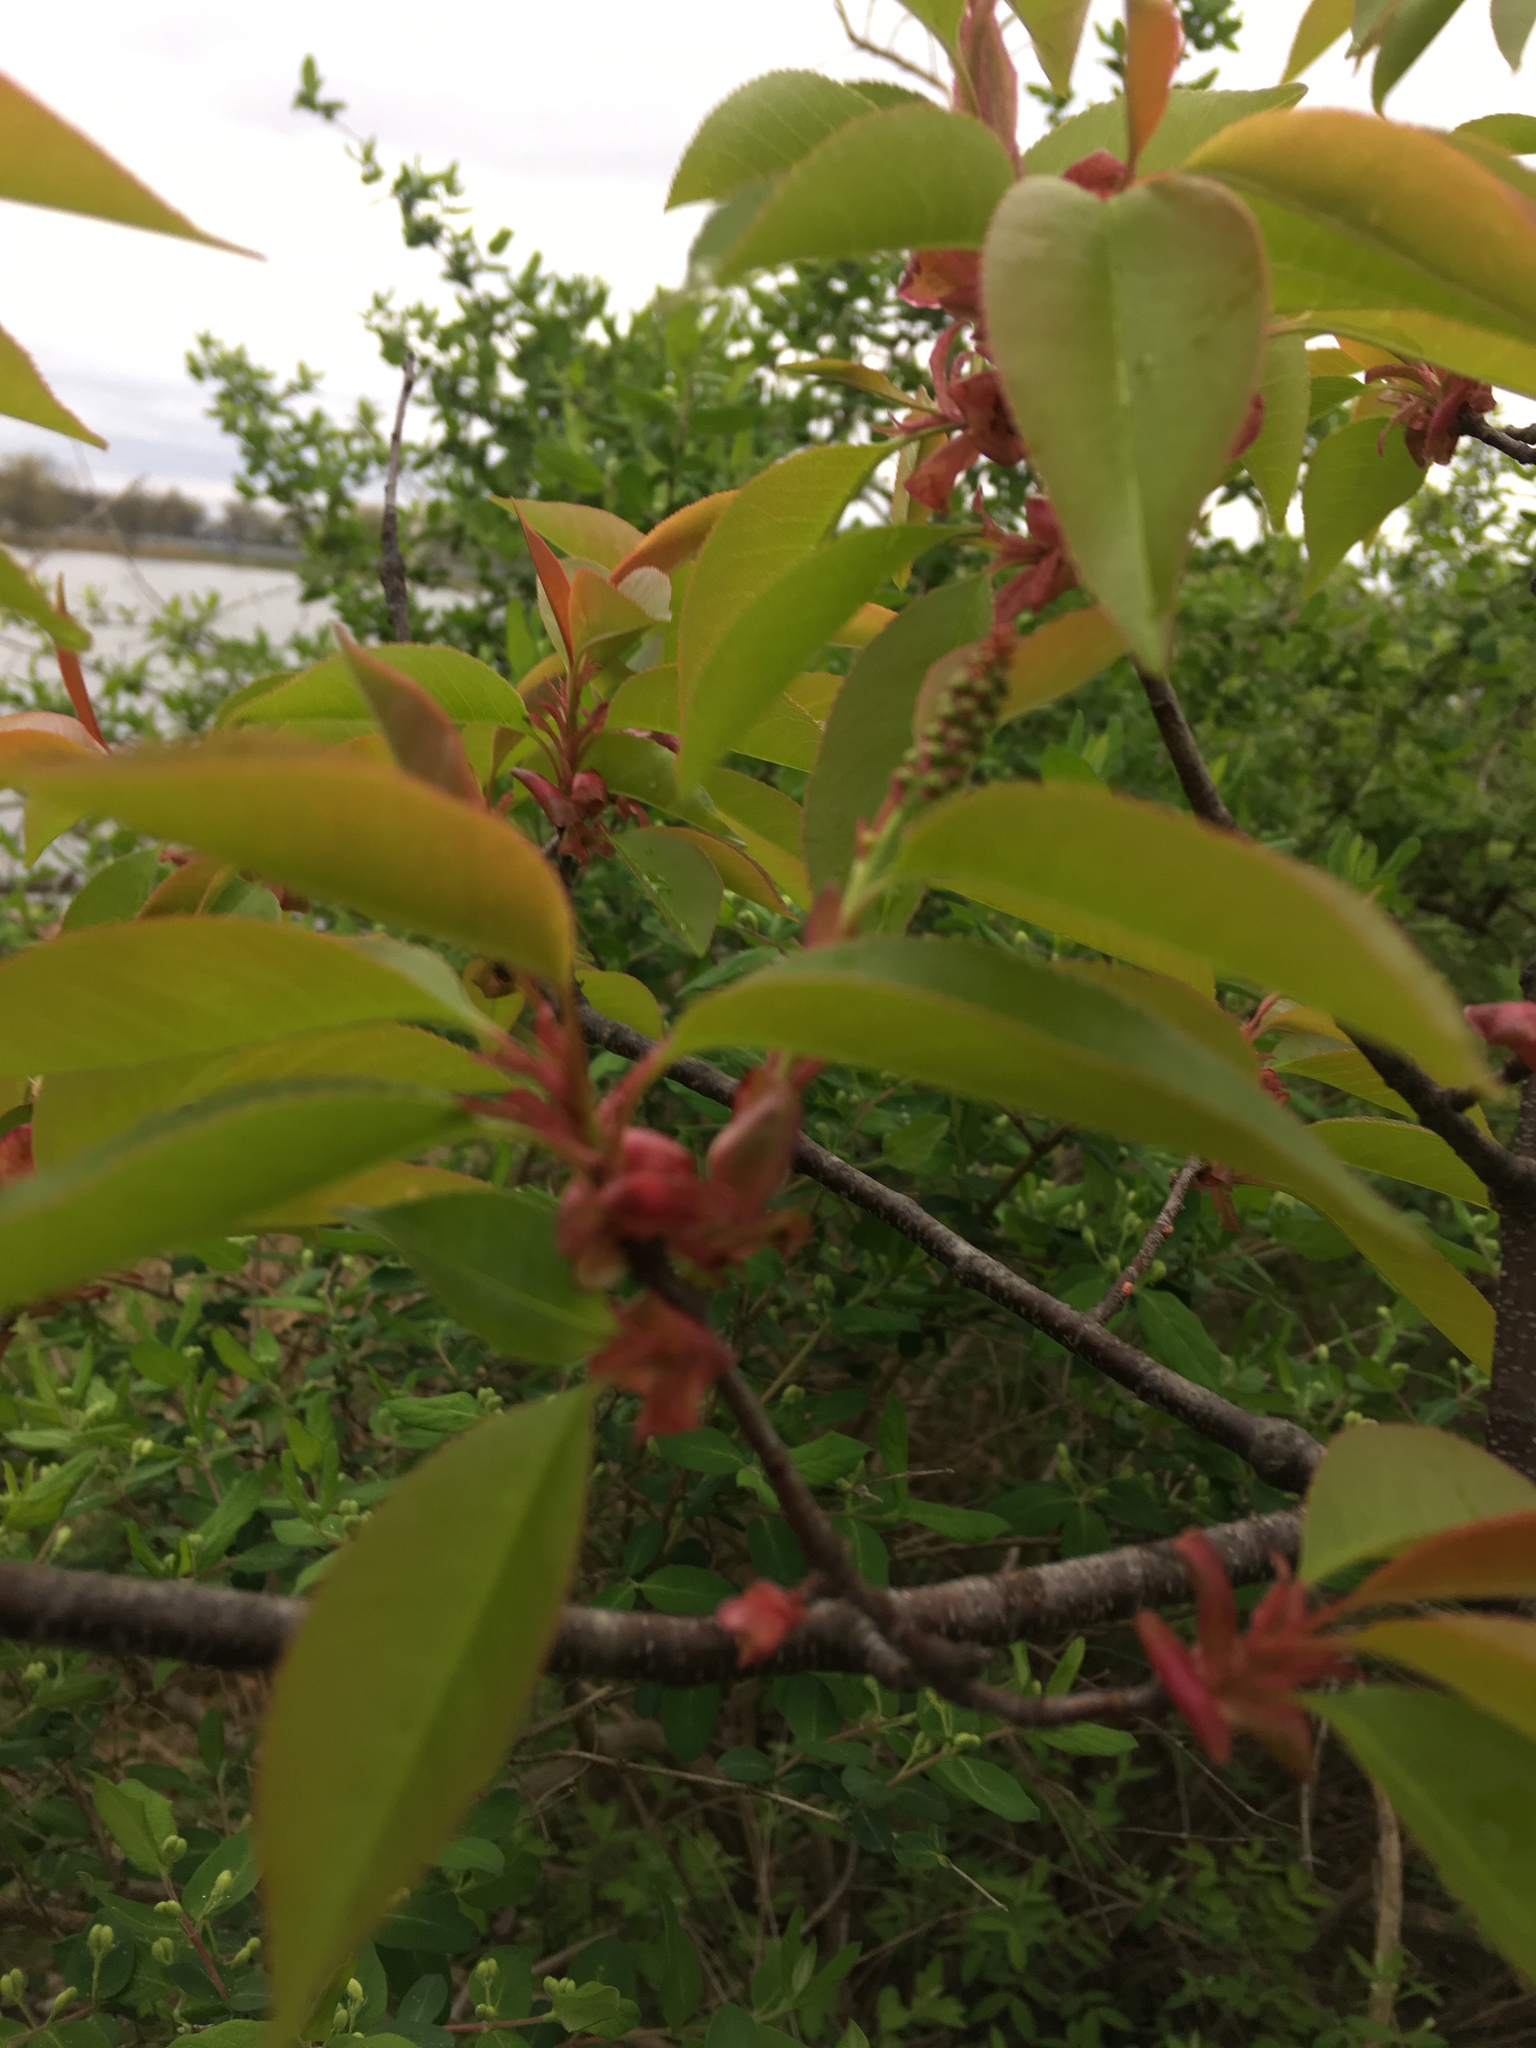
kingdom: Plantae
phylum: Tracheophyta
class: Magnoliopsida
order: Rosales
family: Rosaceae
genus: Prunus
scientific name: Prunus serotina
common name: Black cherry
